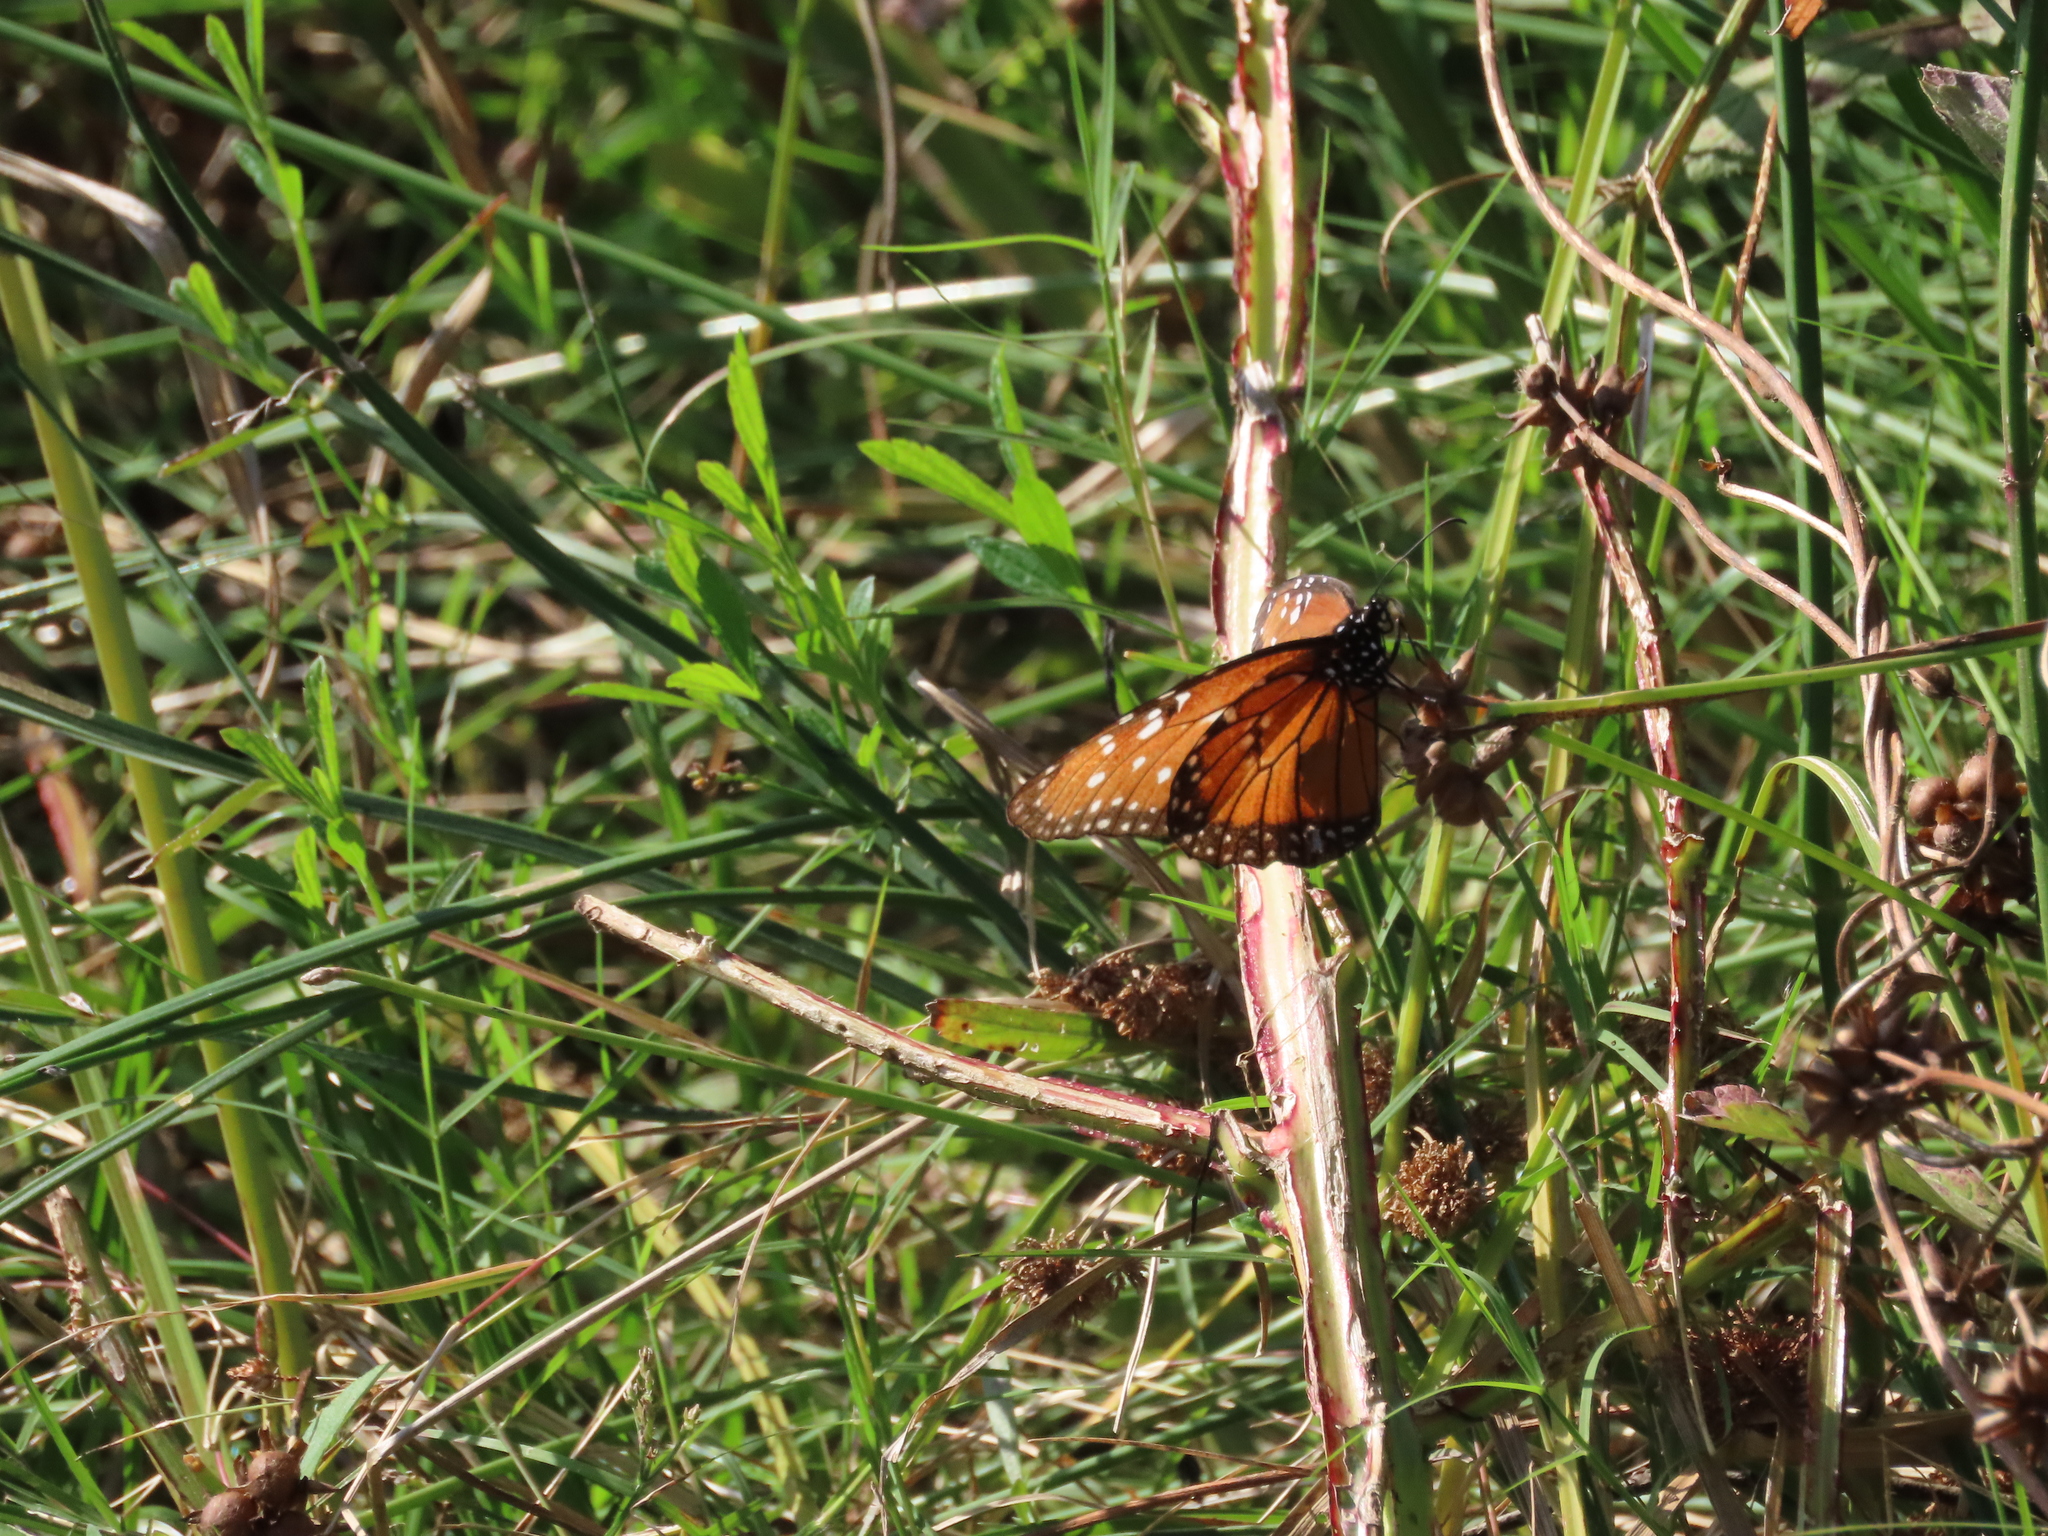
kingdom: Animalia
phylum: Arthropoda
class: Insecta
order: Lepidoptera
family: Nymphalidae
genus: Danaus
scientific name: Danaus gilippus
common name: Queen
